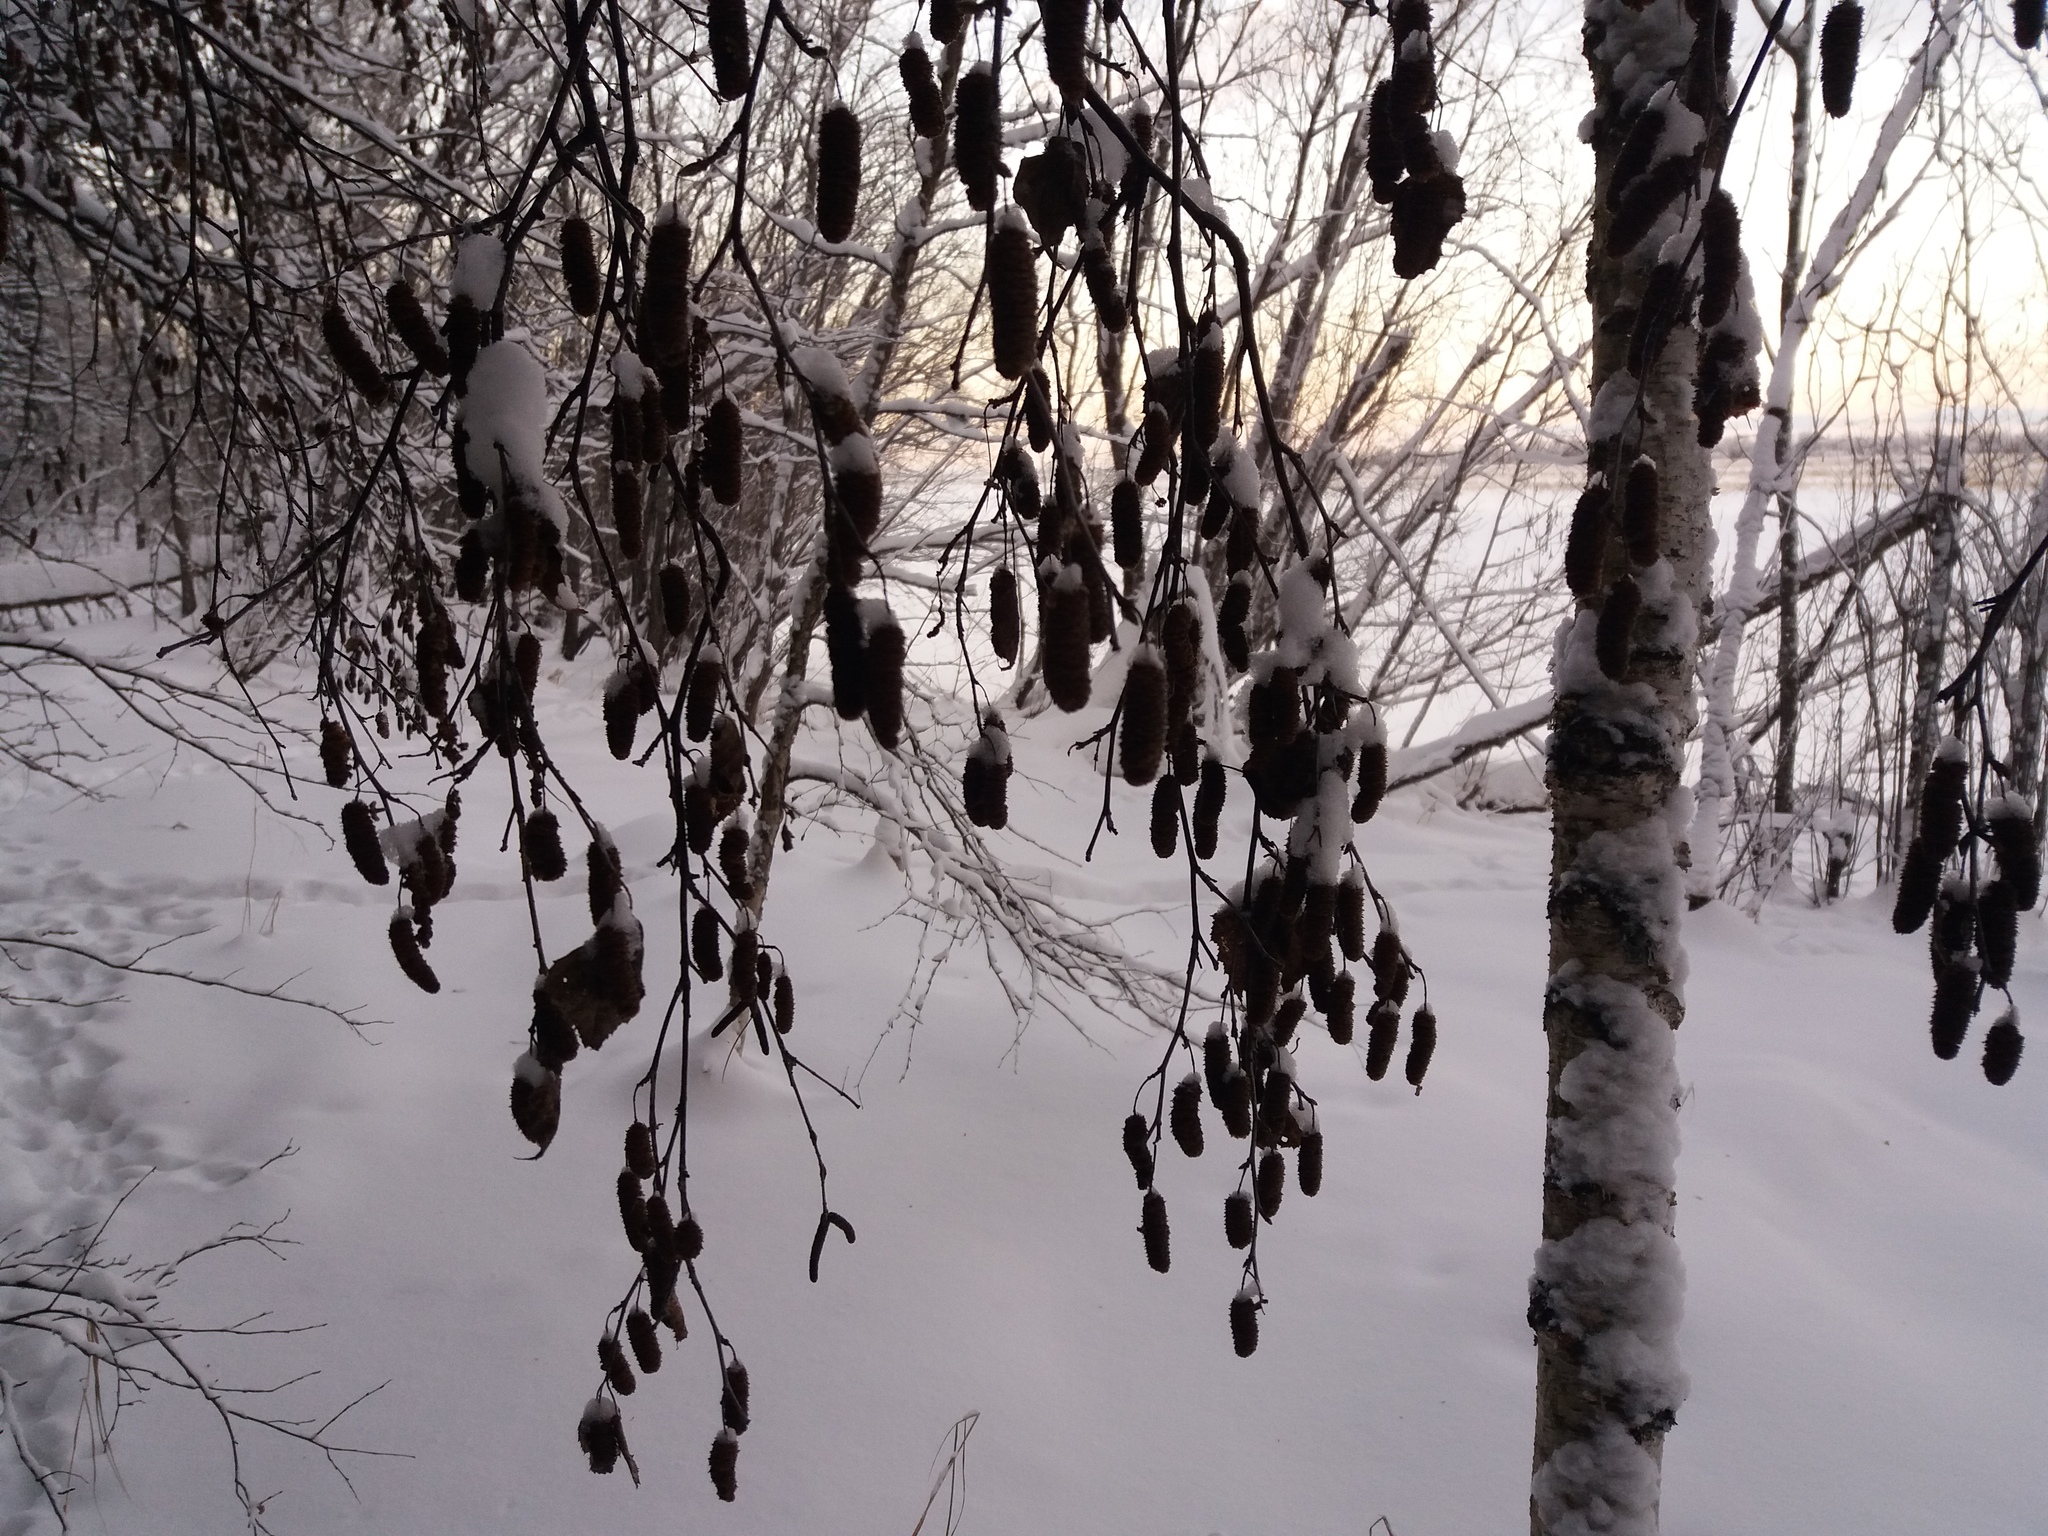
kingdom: Plantae
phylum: Tracheophyta
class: Magnoliopsida
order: Fagales
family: Betulaceae
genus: Betula
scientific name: Betula pubescens
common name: Downy birch
